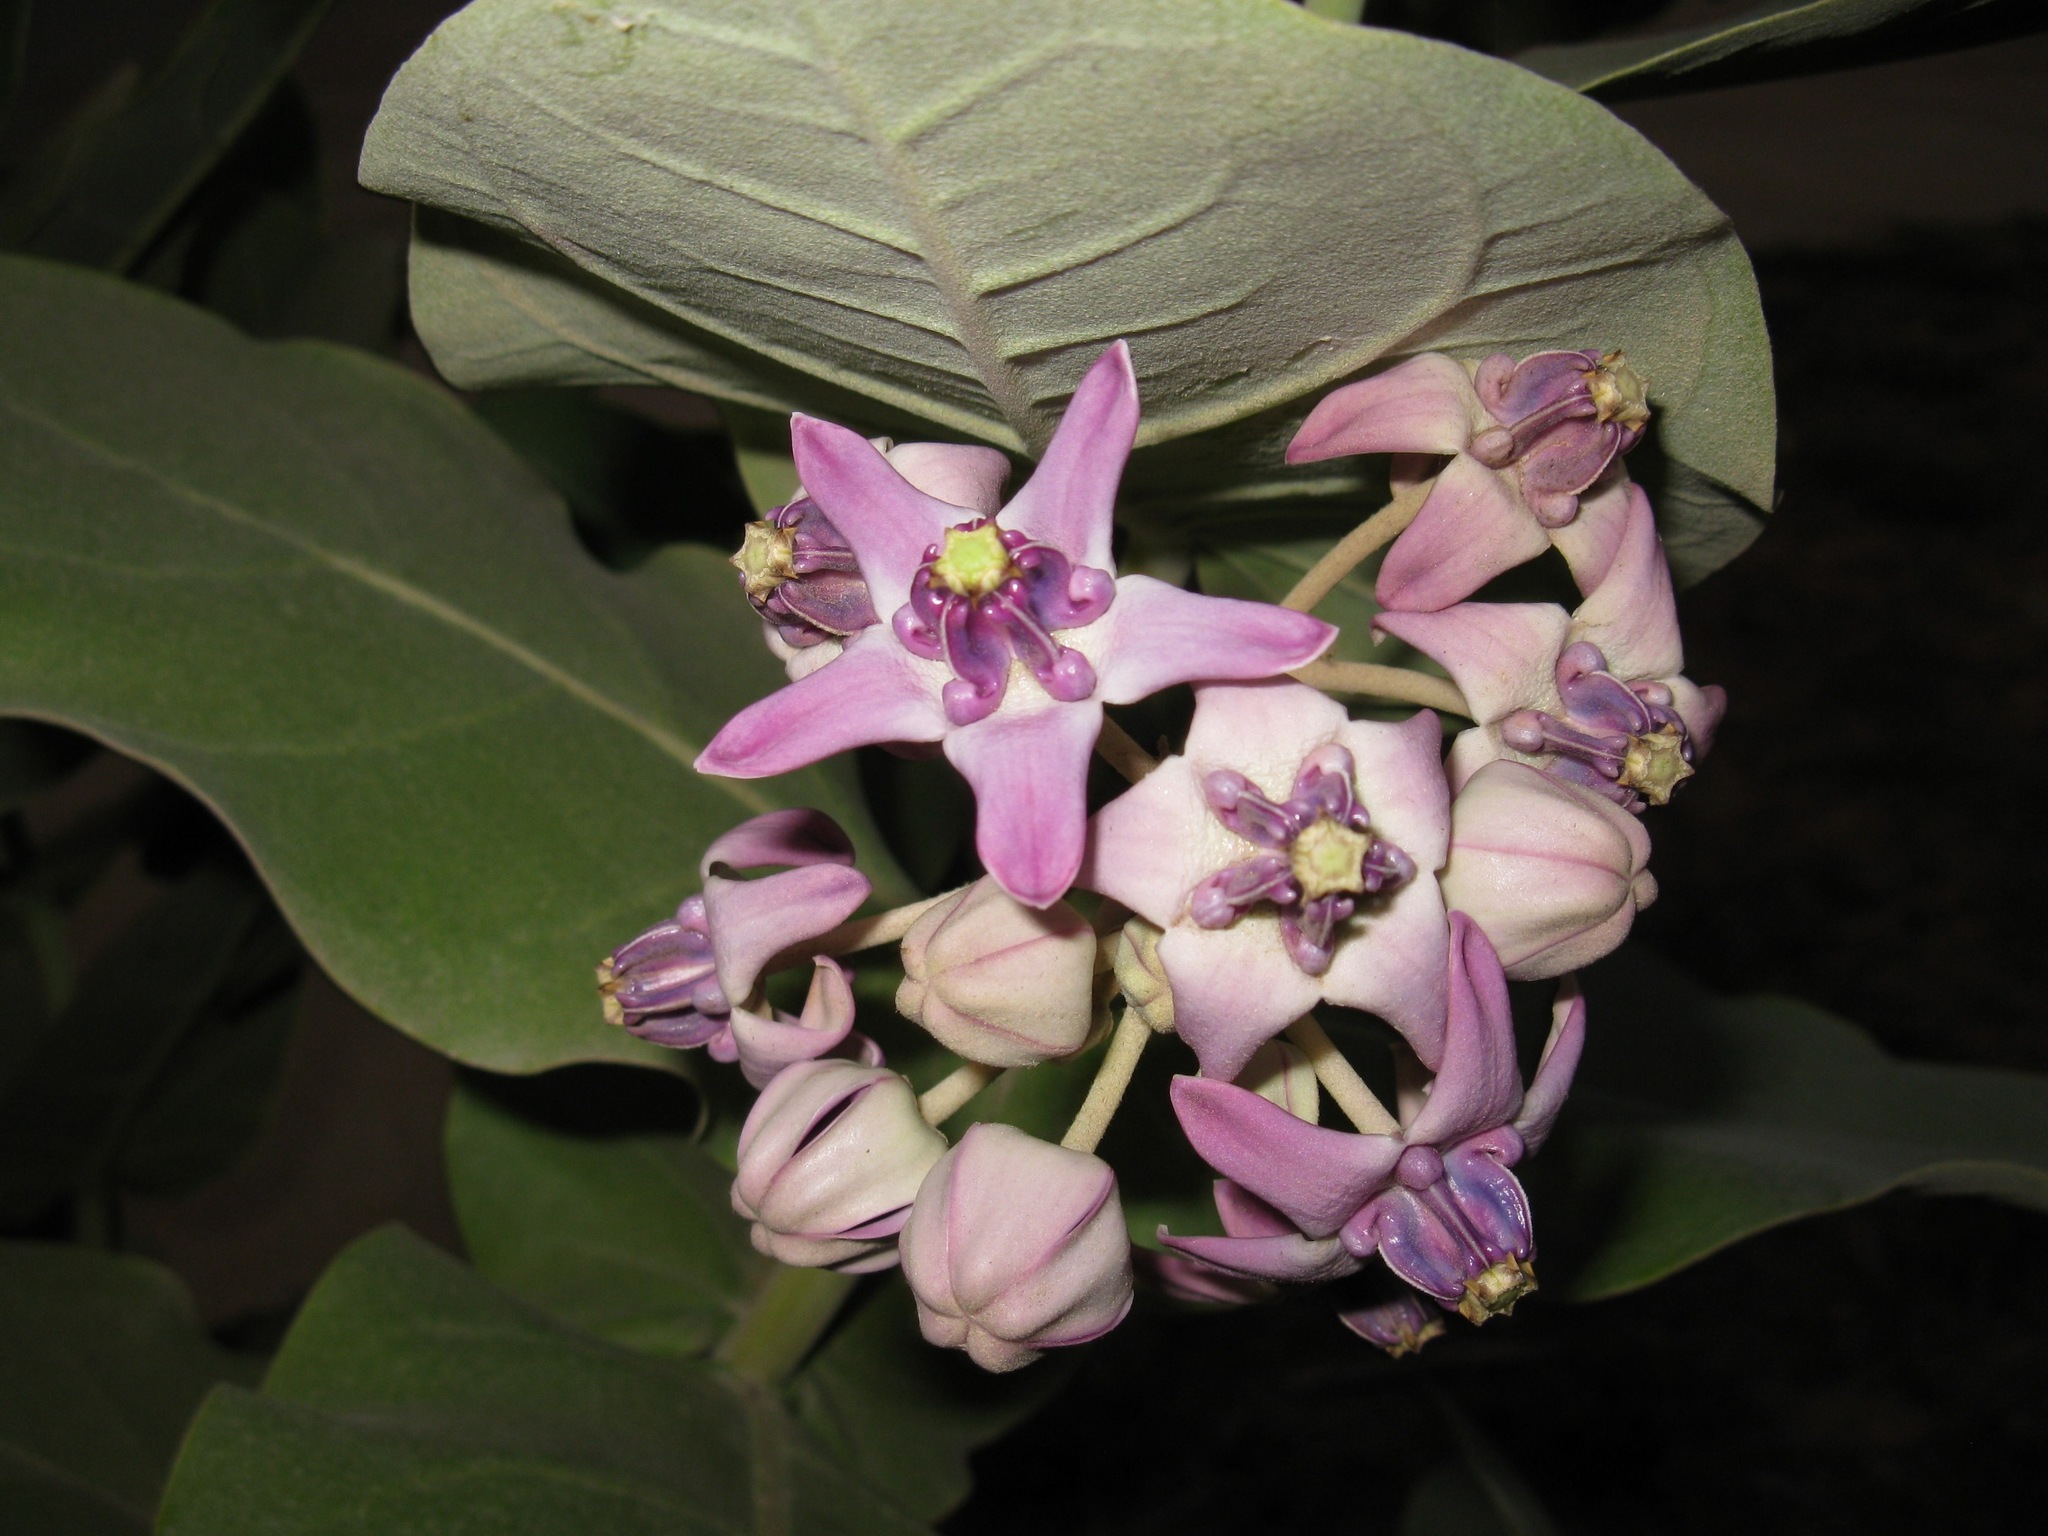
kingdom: Plantae
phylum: Tracheophyta
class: Magnoliopsida
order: Gentianales
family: Apocynaceae
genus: Calotropis
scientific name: Calotropis gigantea
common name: Crown flower
